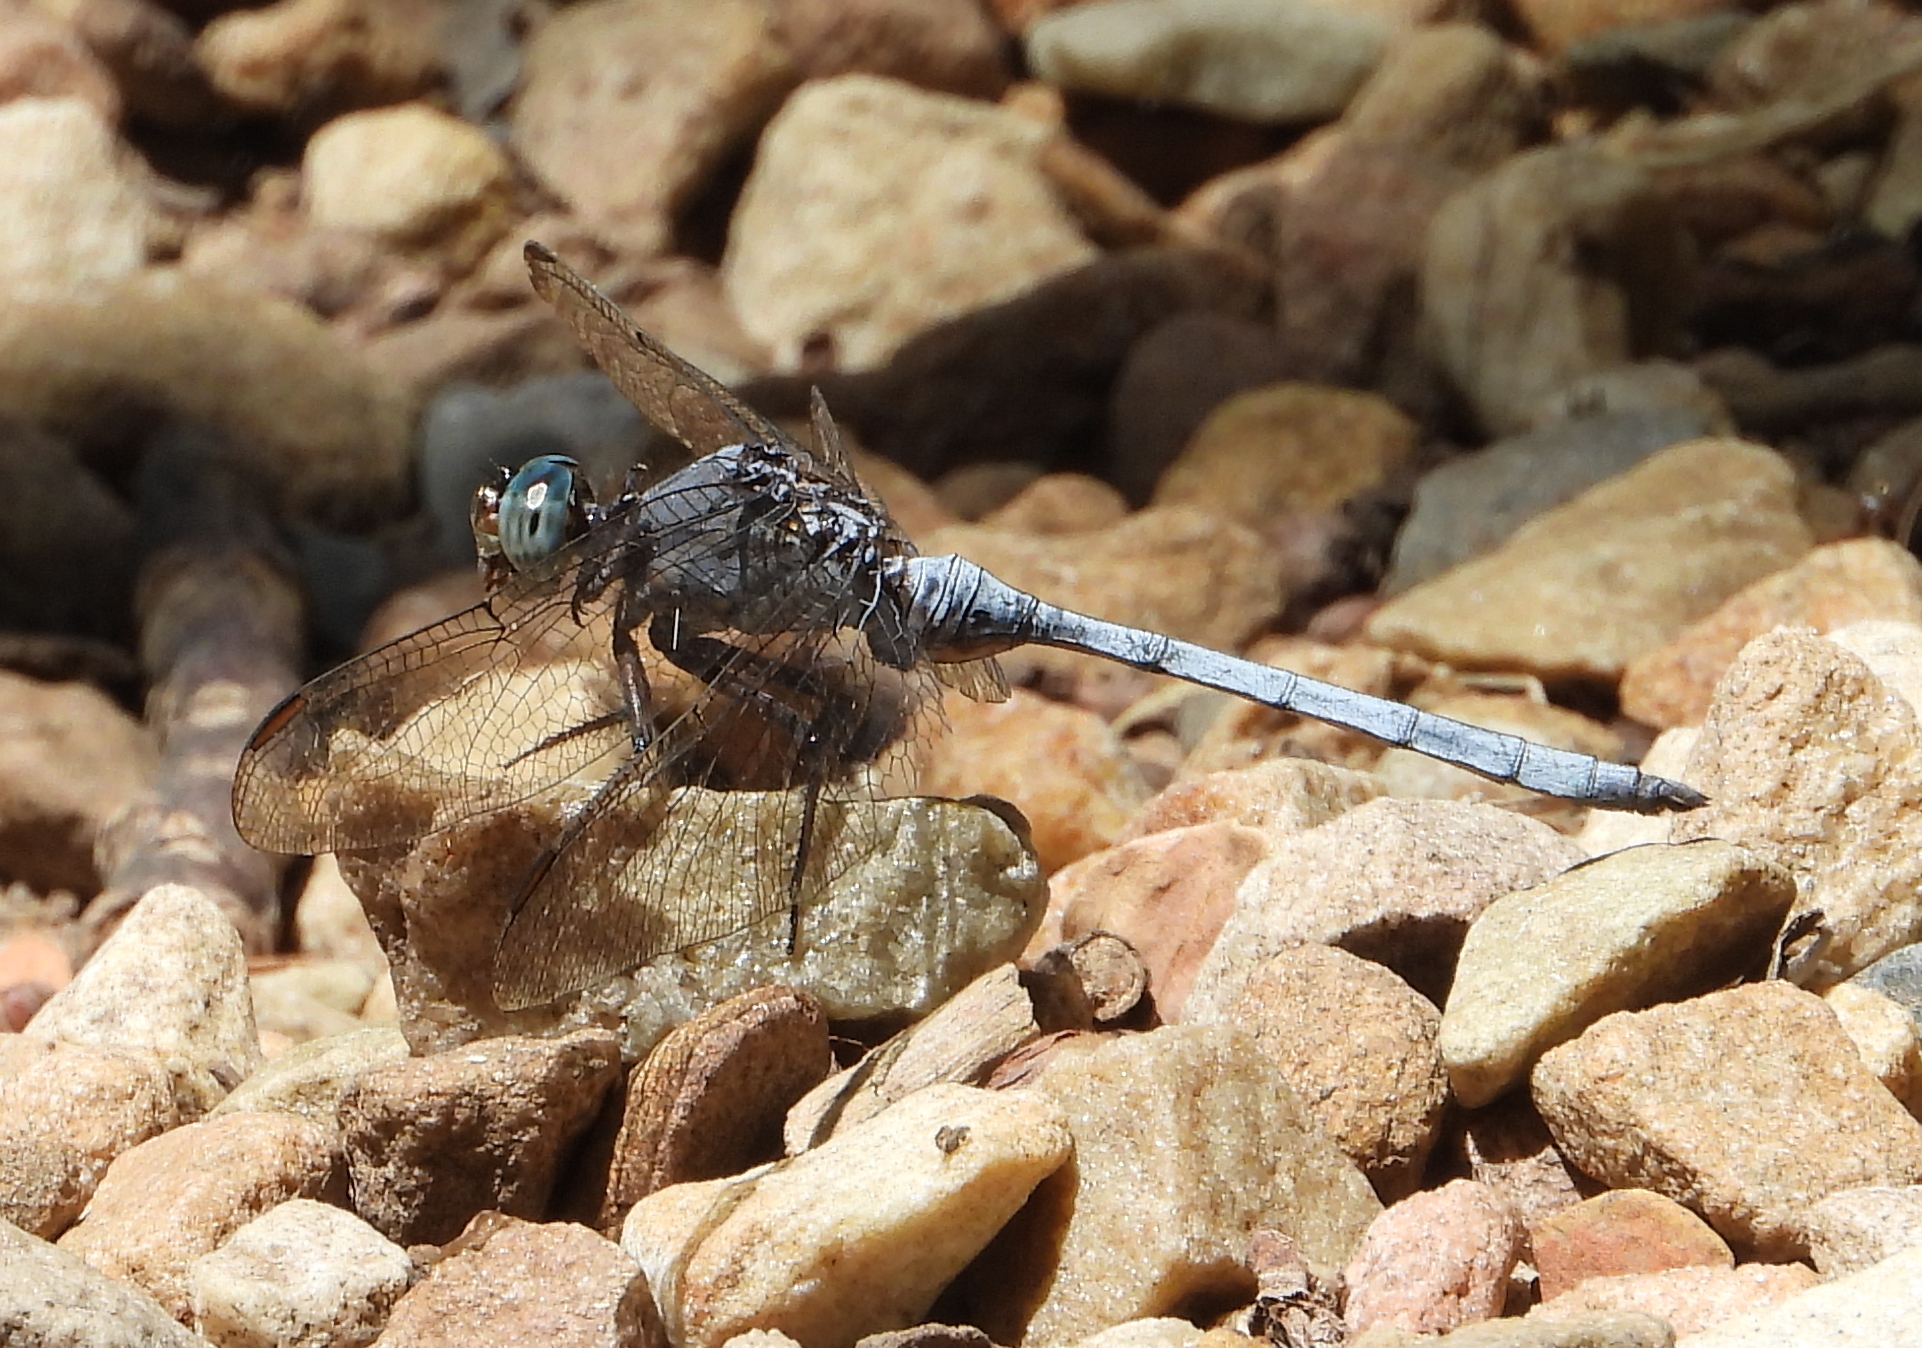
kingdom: Animalia
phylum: Arthropoda
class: Insecta
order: Odonata
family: Libellulidae
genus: Orthetrum
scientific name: Orthetrum julia
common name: Julia skimmer
